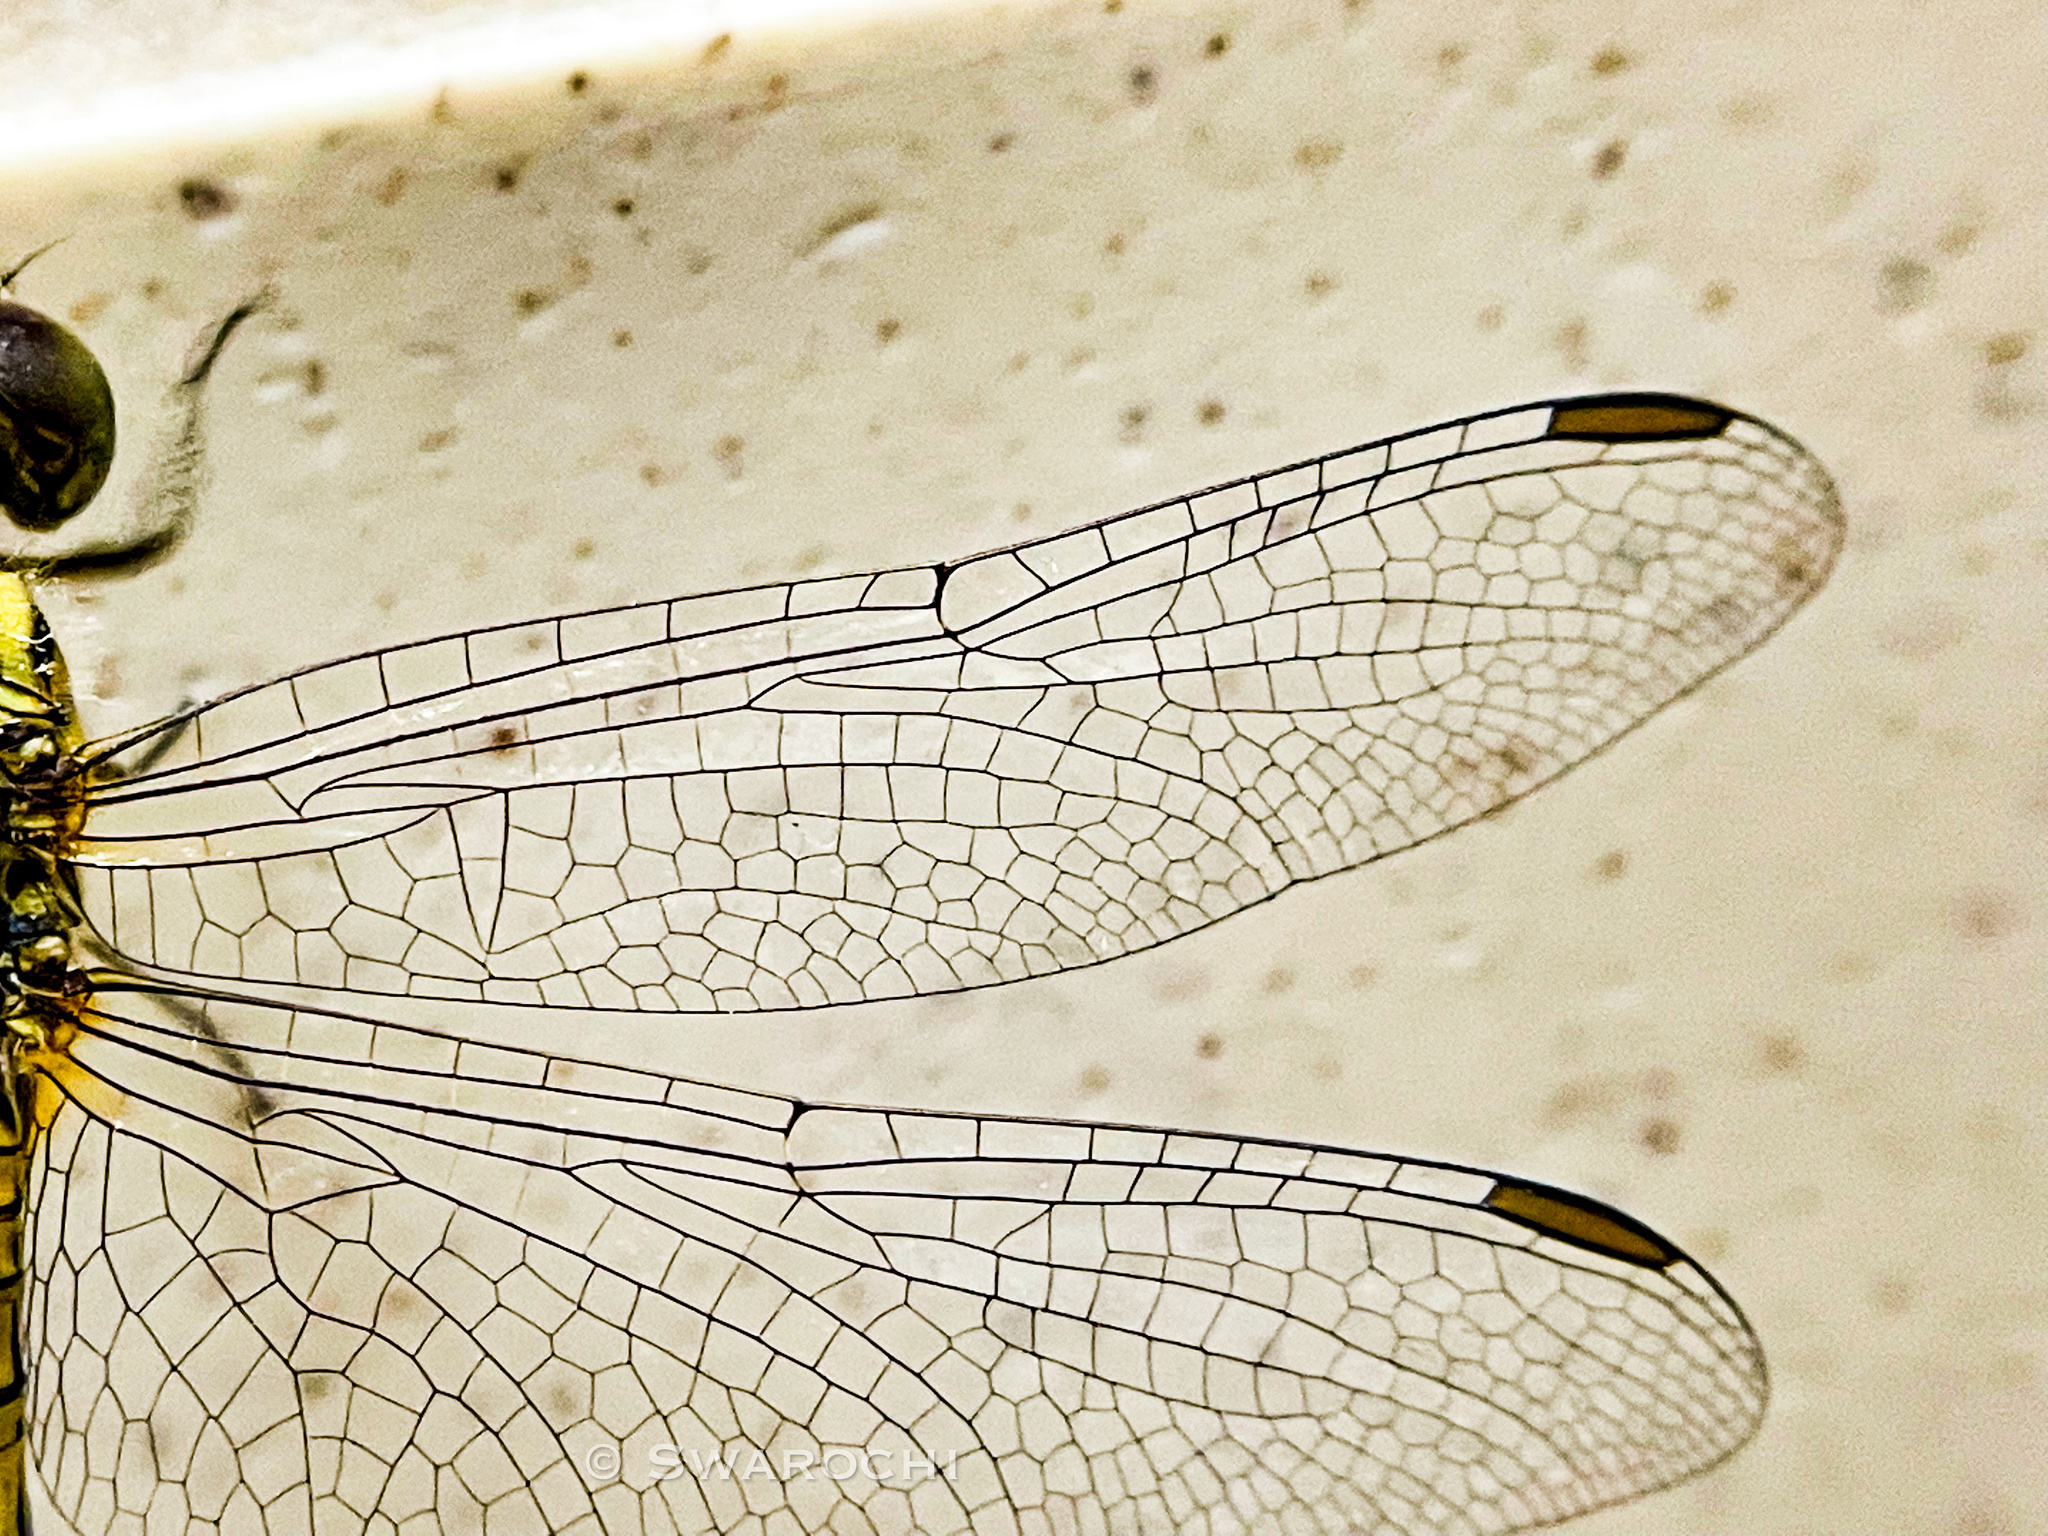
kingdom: Animalia
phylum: Arthropoda
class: Insecta
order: Odonata
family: Libellulidae
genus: Indothemis
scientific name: Indothemis carnatica
